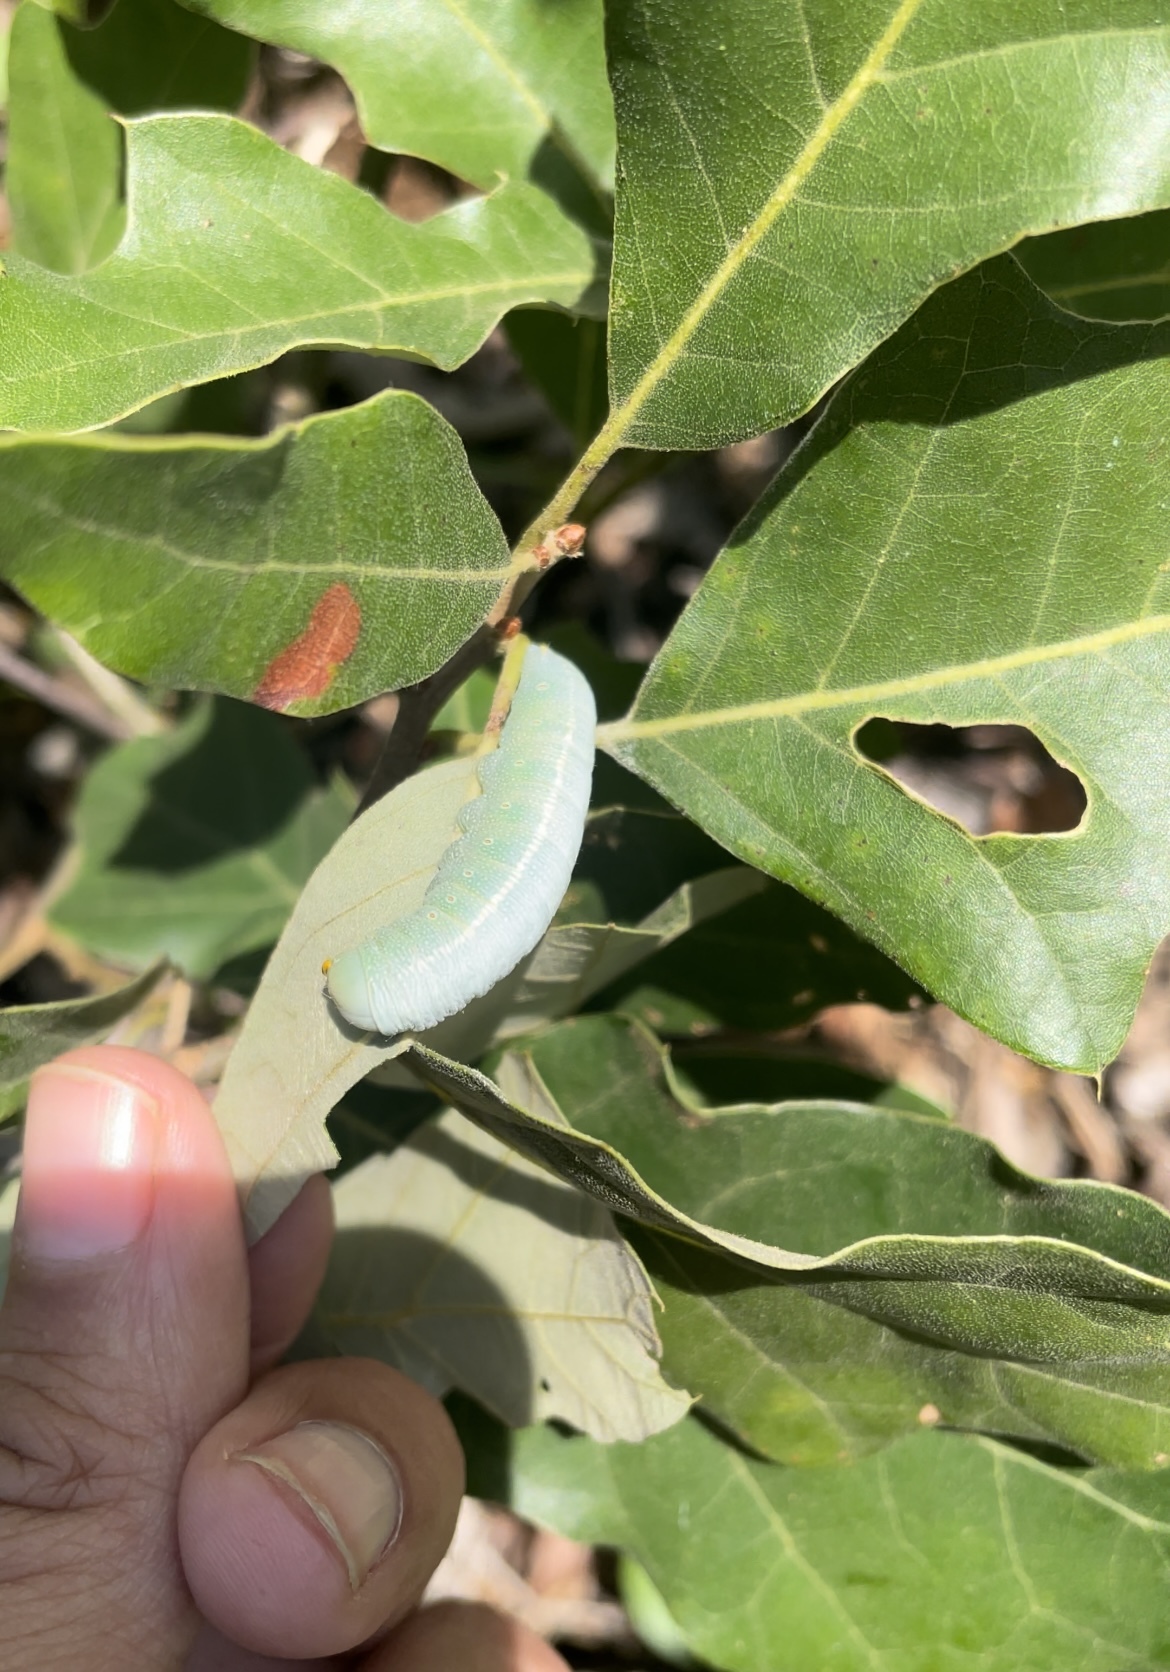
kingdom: Animalia
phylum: Arthropoda
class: Insecta
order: Lepidoptera
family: Notodontidae
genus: Nadata
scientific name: Nadata gibbosa
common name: White-dotted prominent
